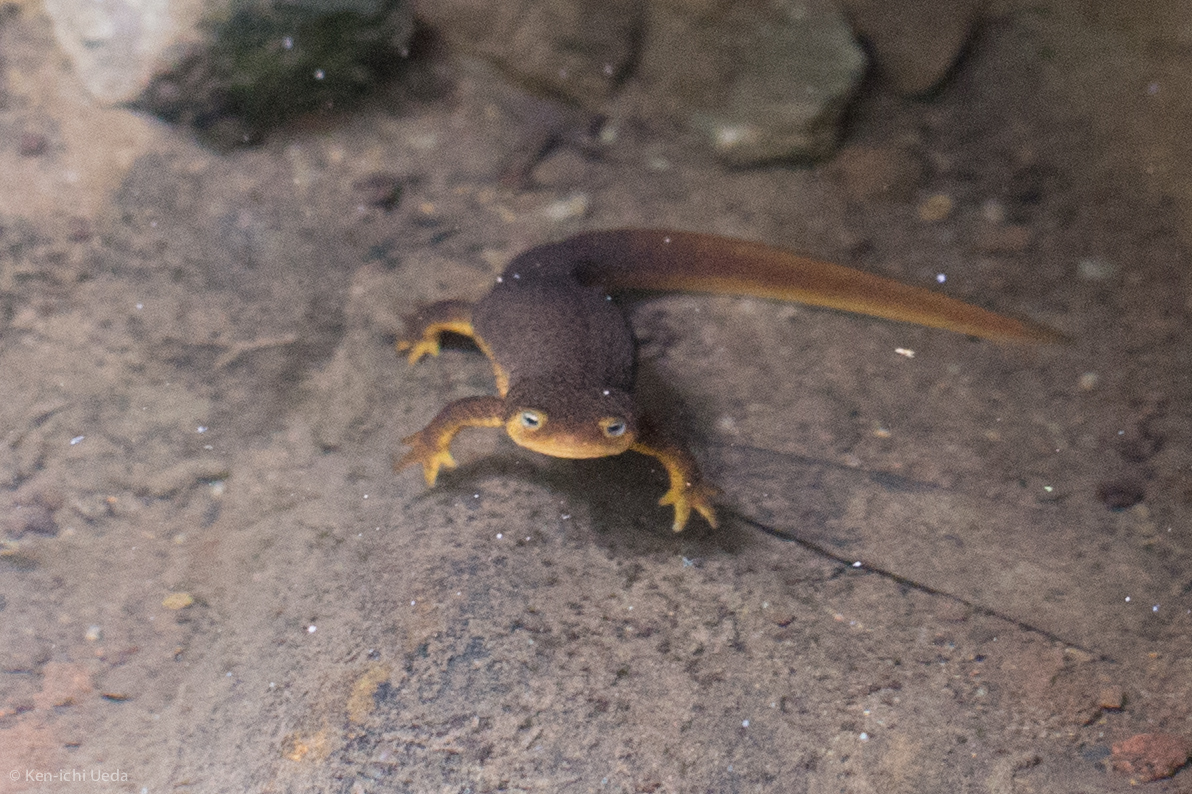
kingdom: Animalia
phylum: Chordata
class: Amphibia
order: Caudata
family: Salamandridae
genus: Taricha
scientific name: Taricha
